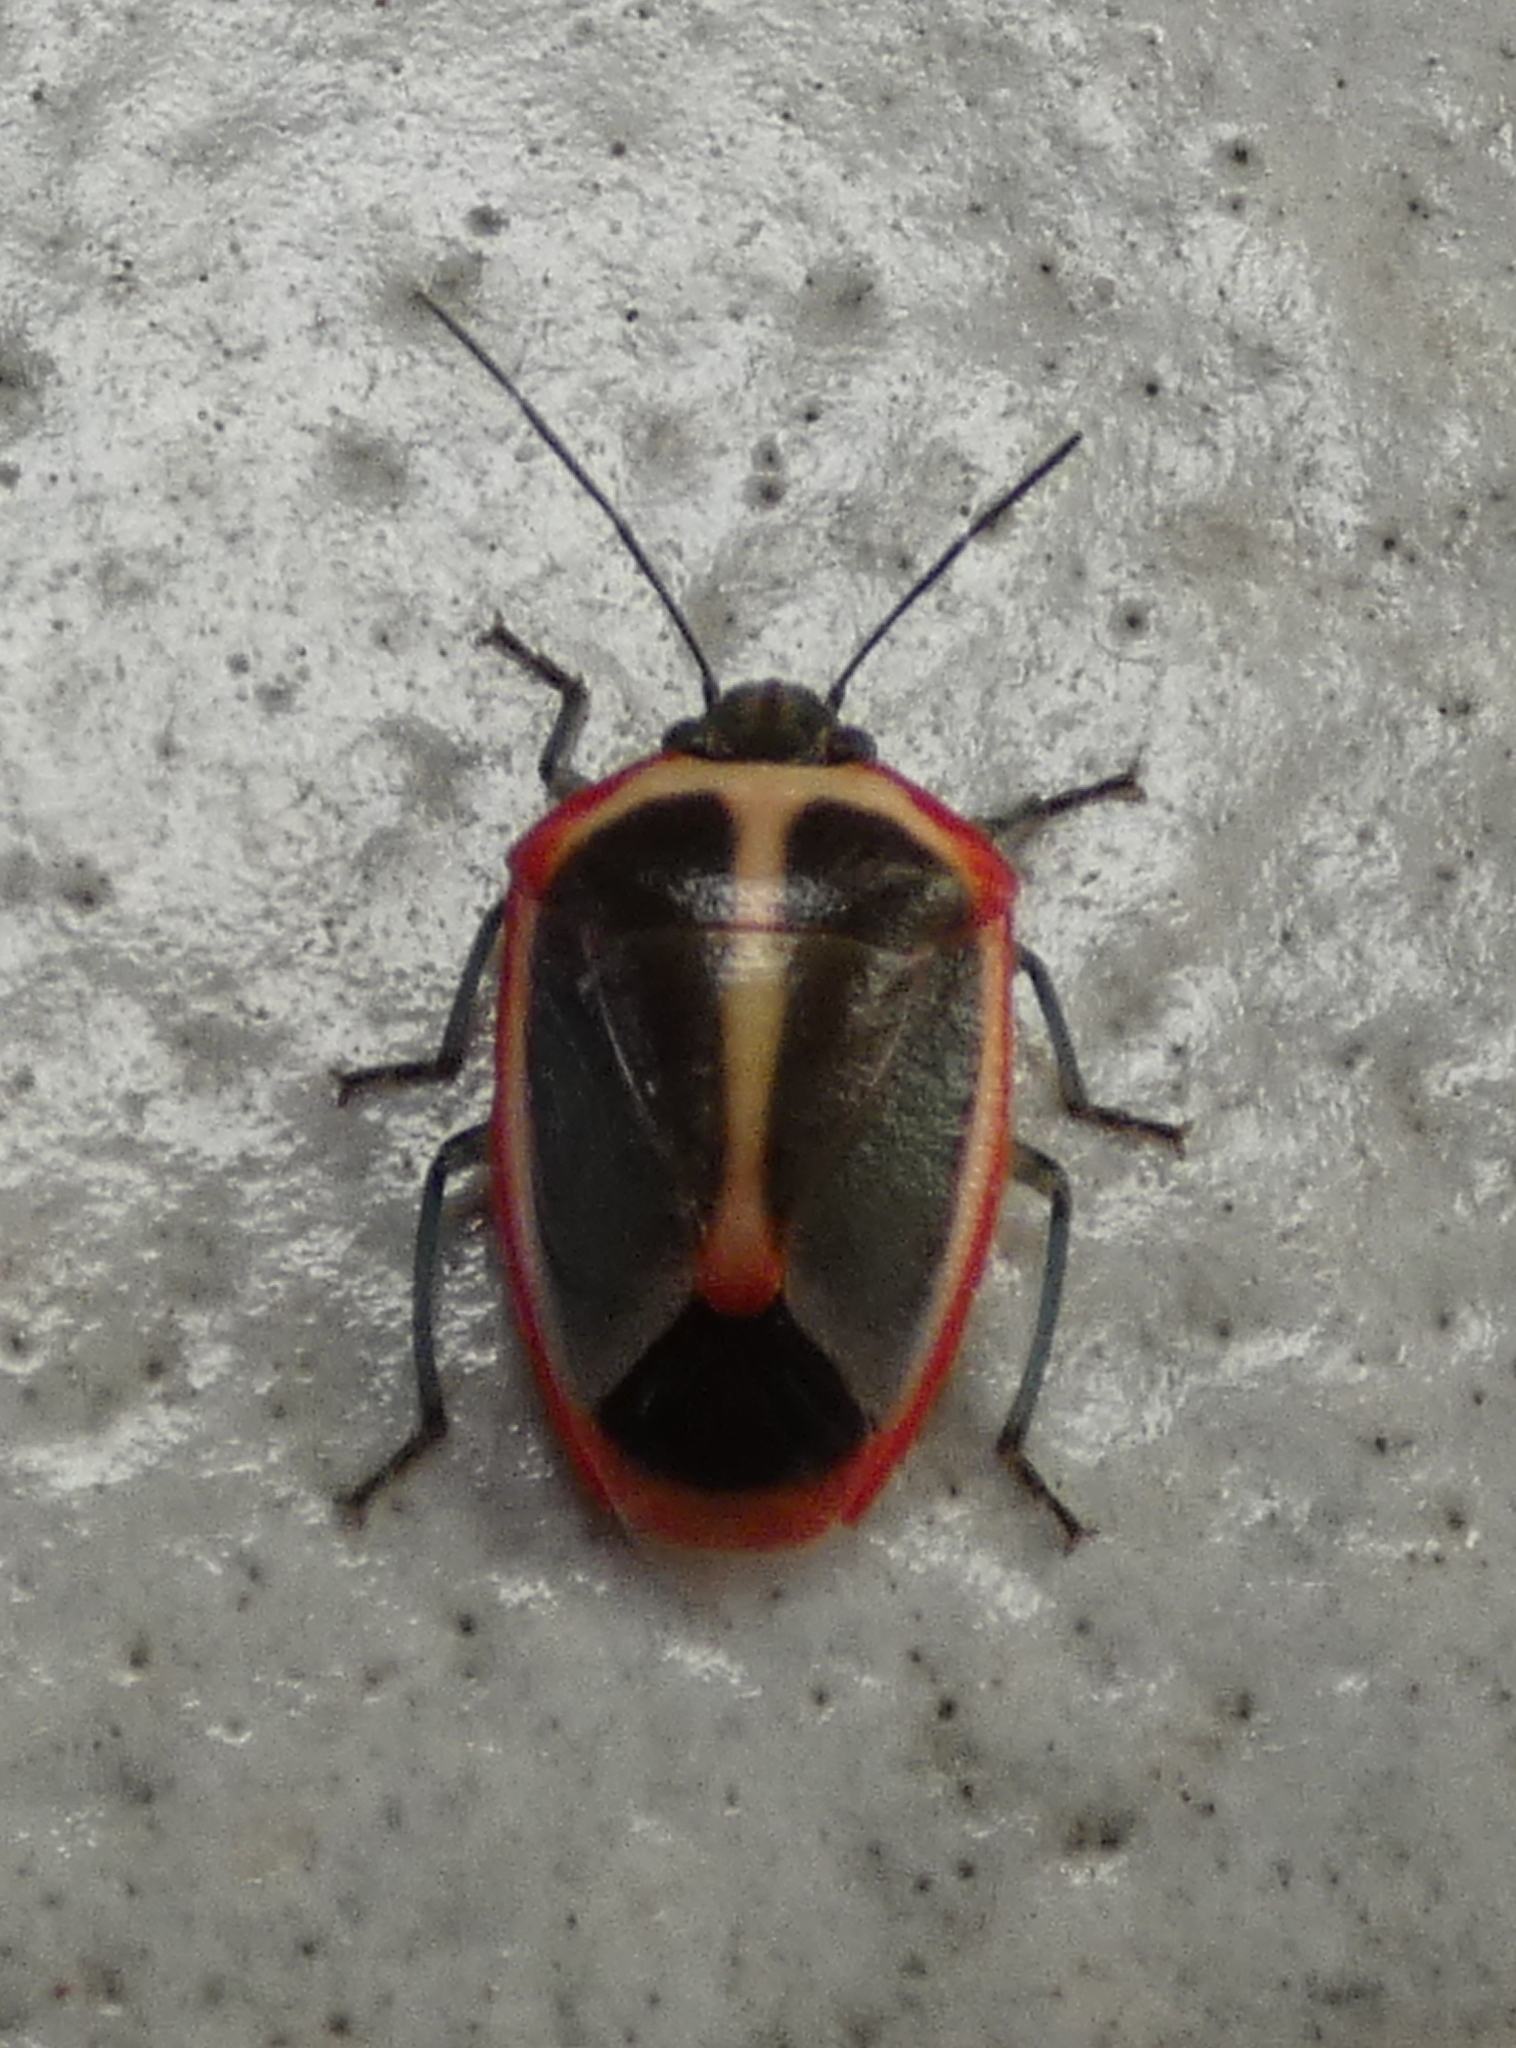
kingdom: Animalia
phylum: Arthropoda
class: Insecta
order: Hemiptera
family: Pentatomidae
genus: Roferta
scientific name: Roferta marginalis
